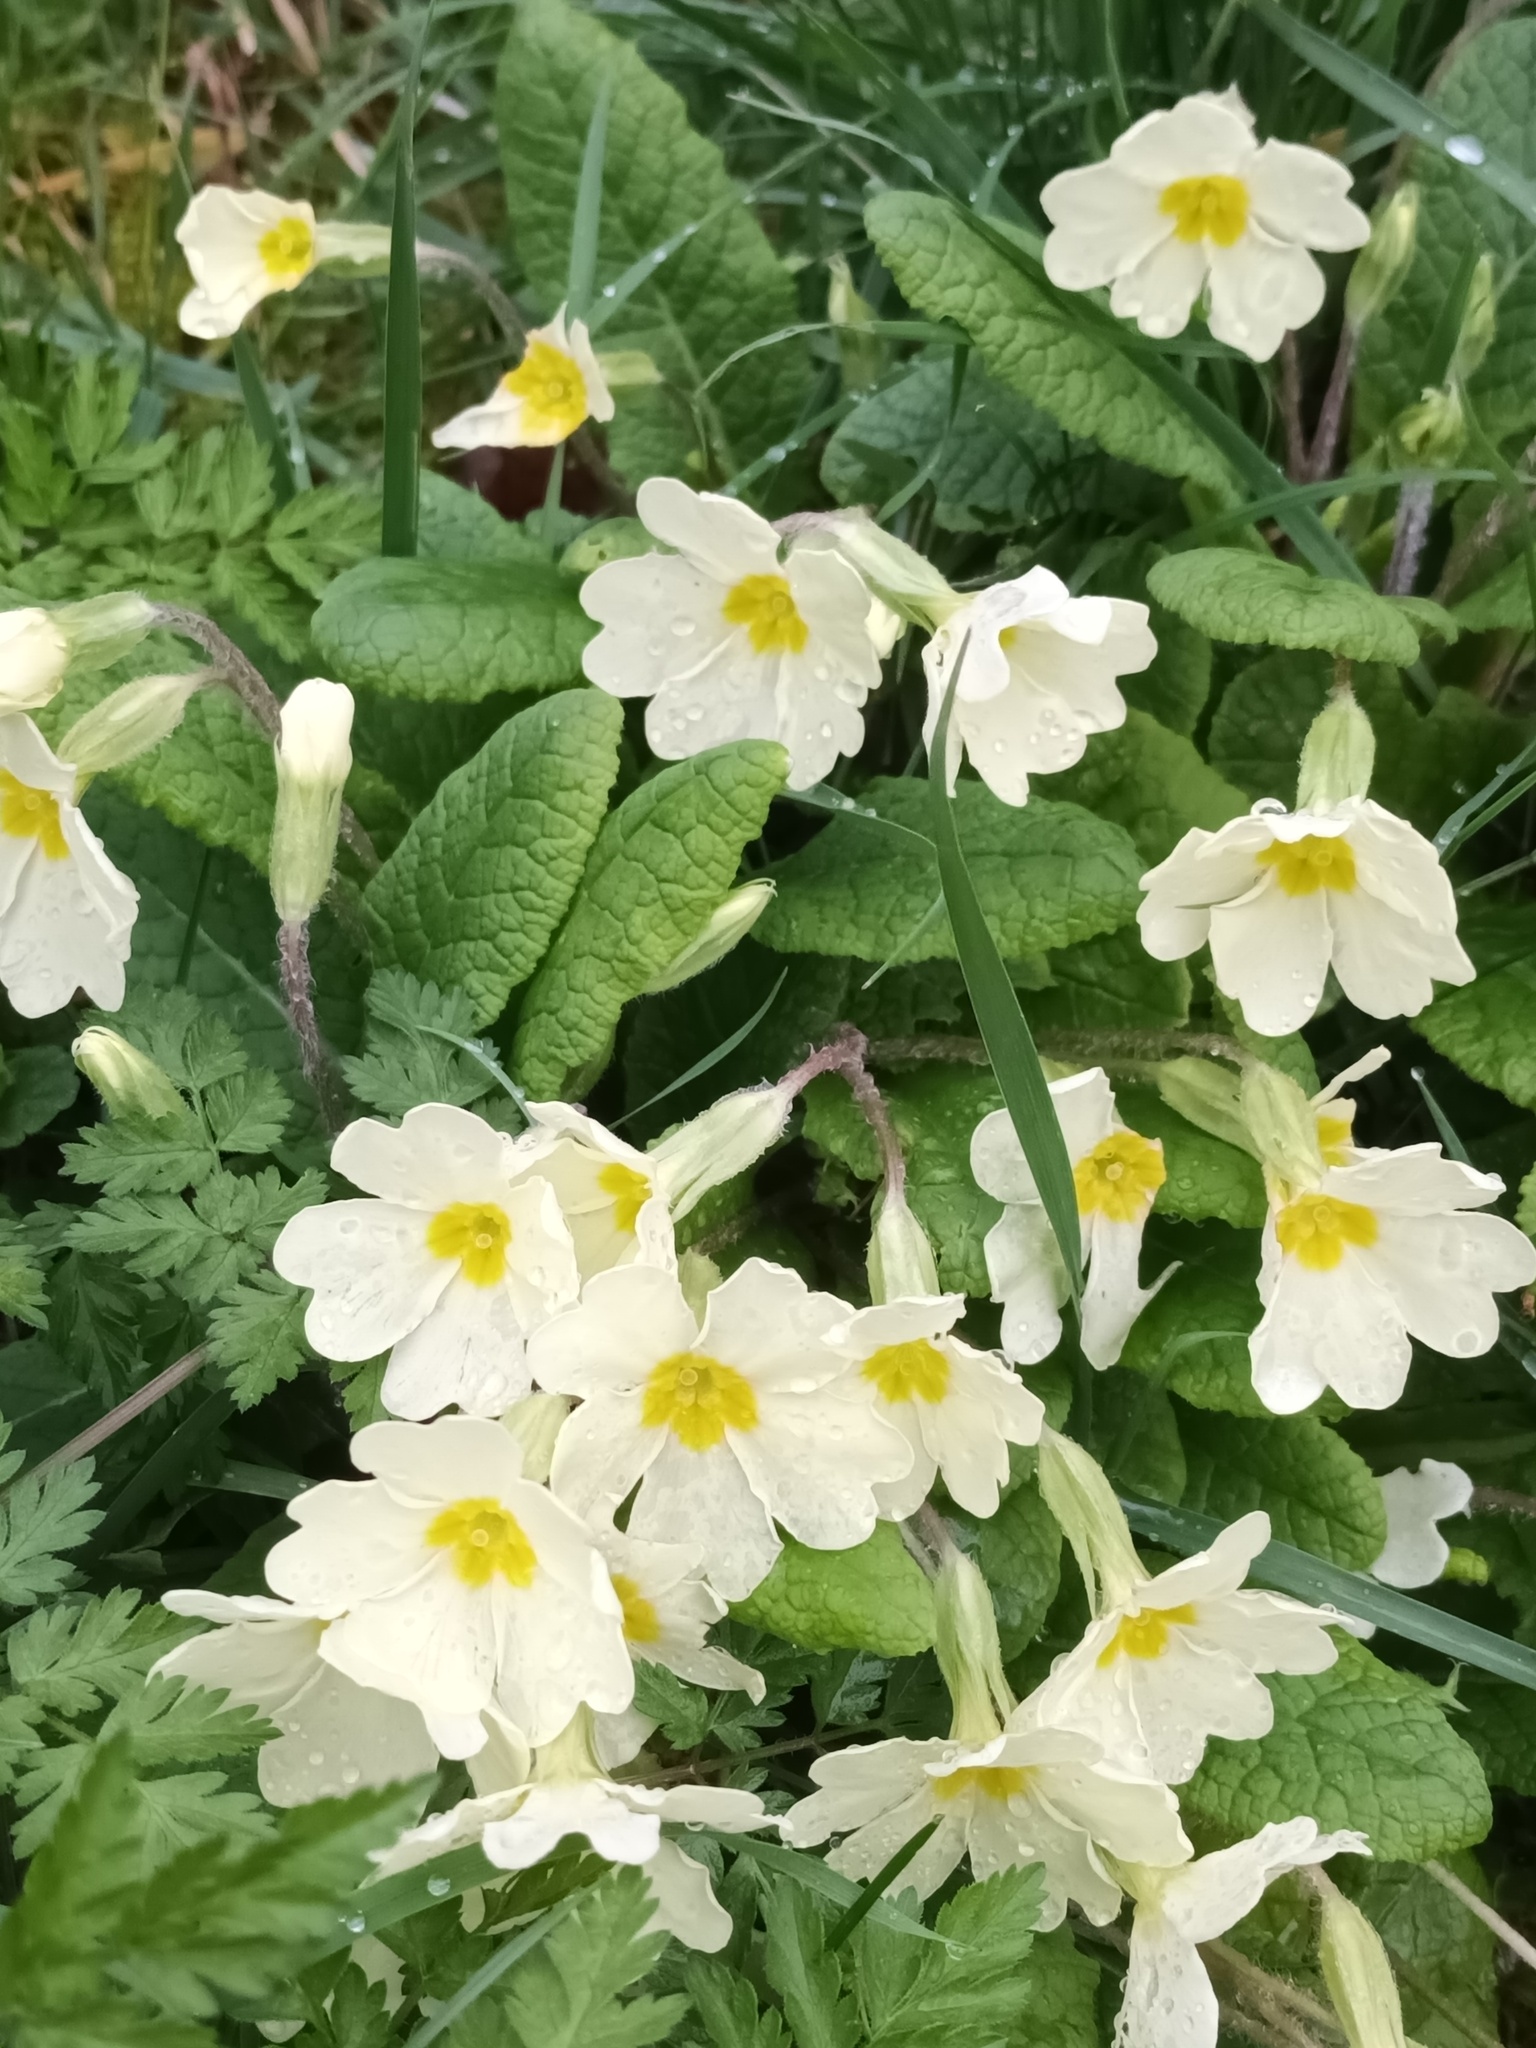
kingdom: Plantae
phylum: Tracheophyta
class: Magnoliopsida
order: Ericales
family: Primulaceae
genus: Primula
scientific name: Primula vulgaris
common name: Primrose
